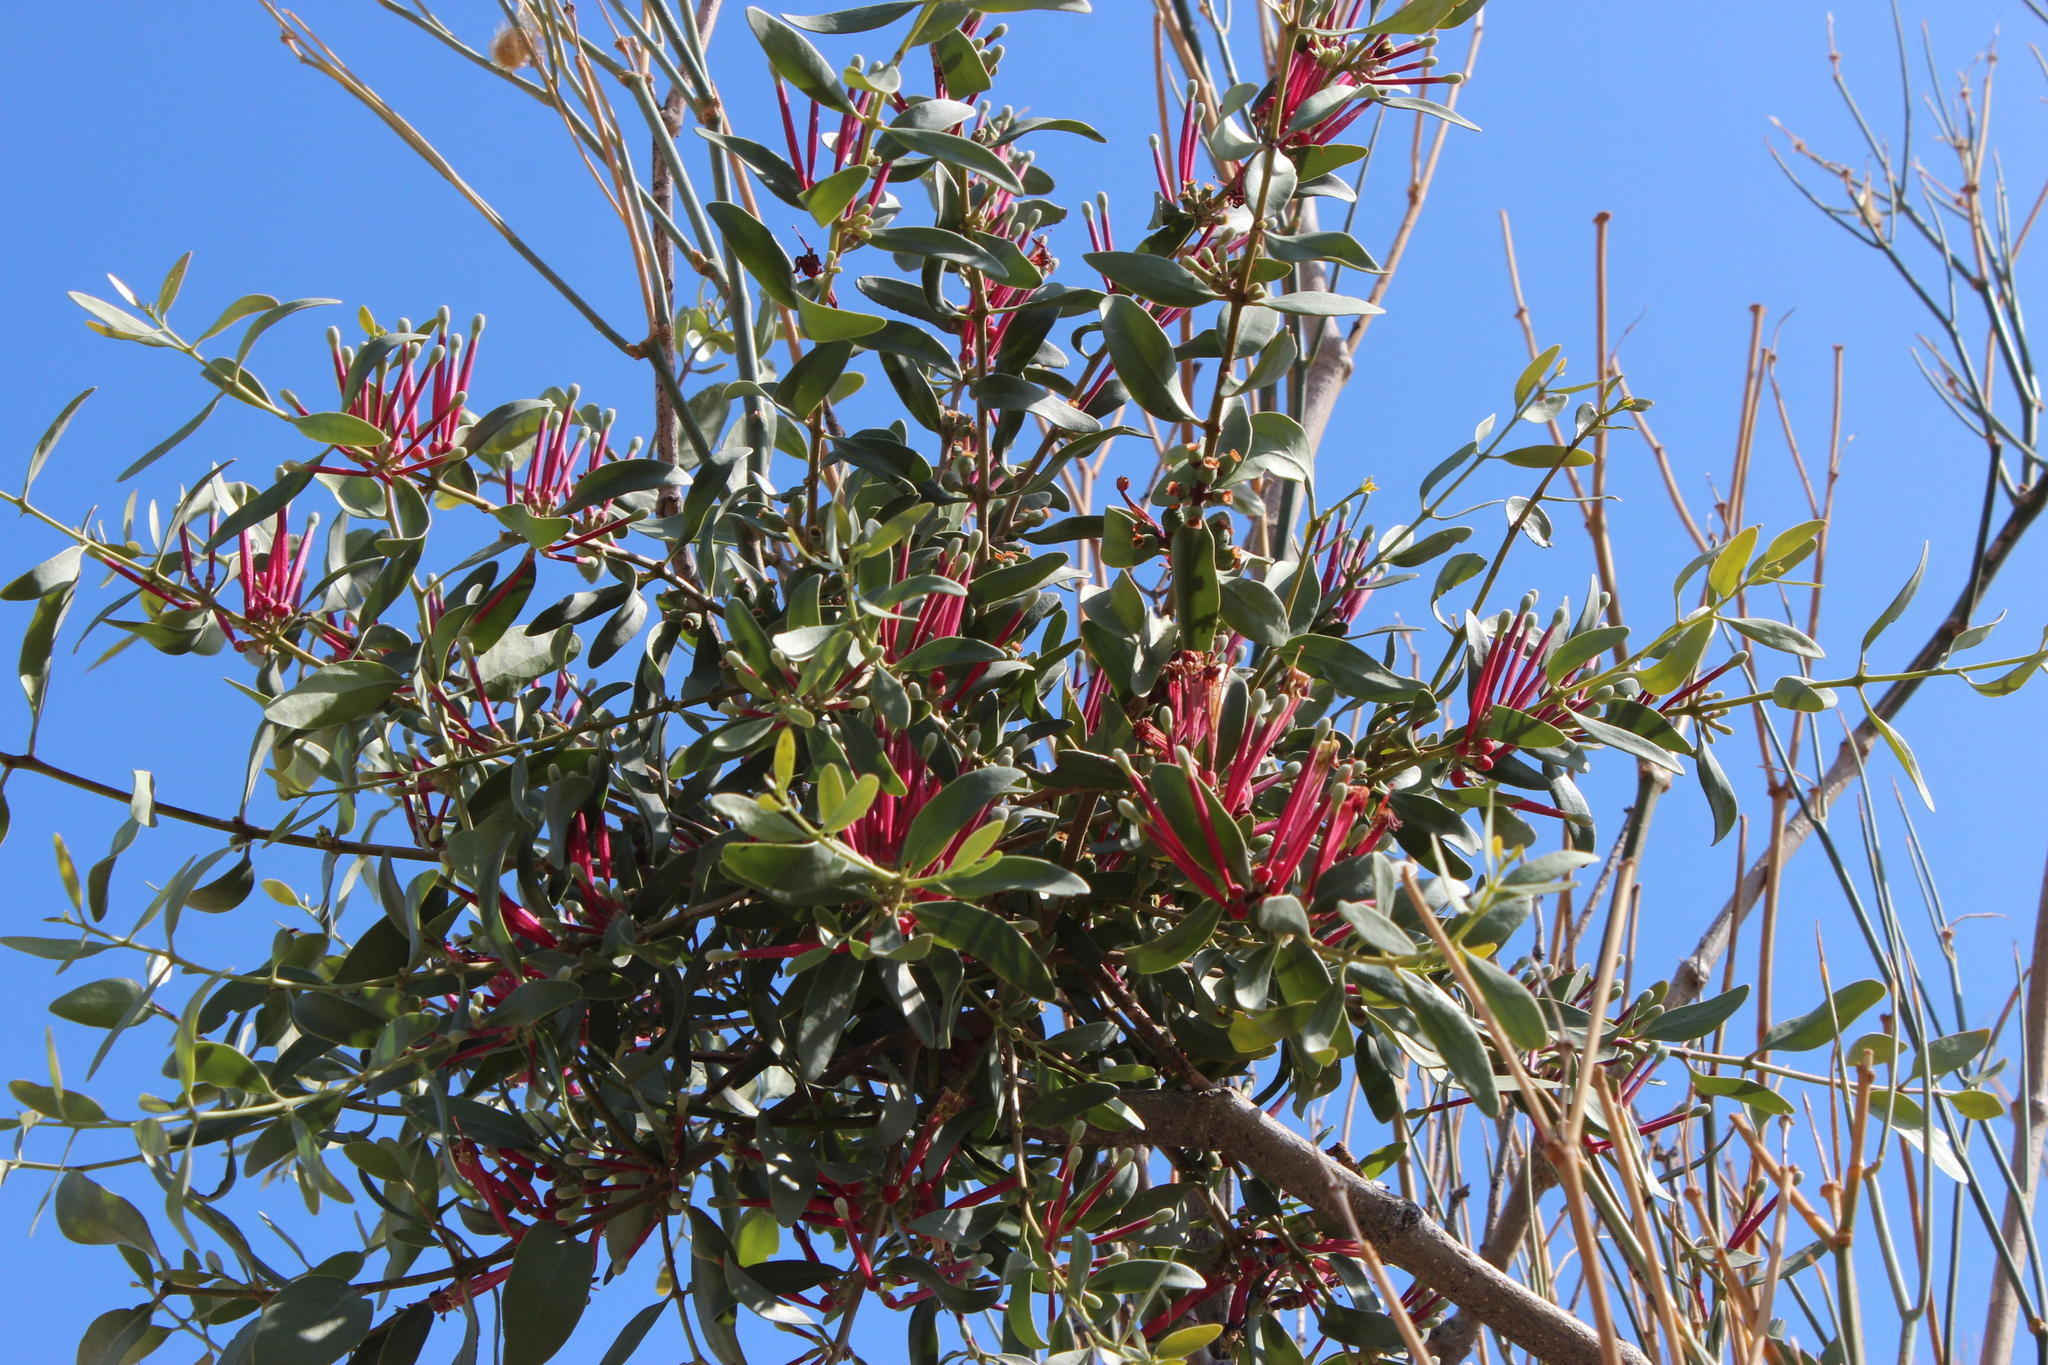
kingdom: Plantae
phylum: Tracheophyta
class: Magnoliopsida
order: Santalales
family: Loranthaceae
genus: Tapinanthus
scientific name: Tapinanthus oleifolius
